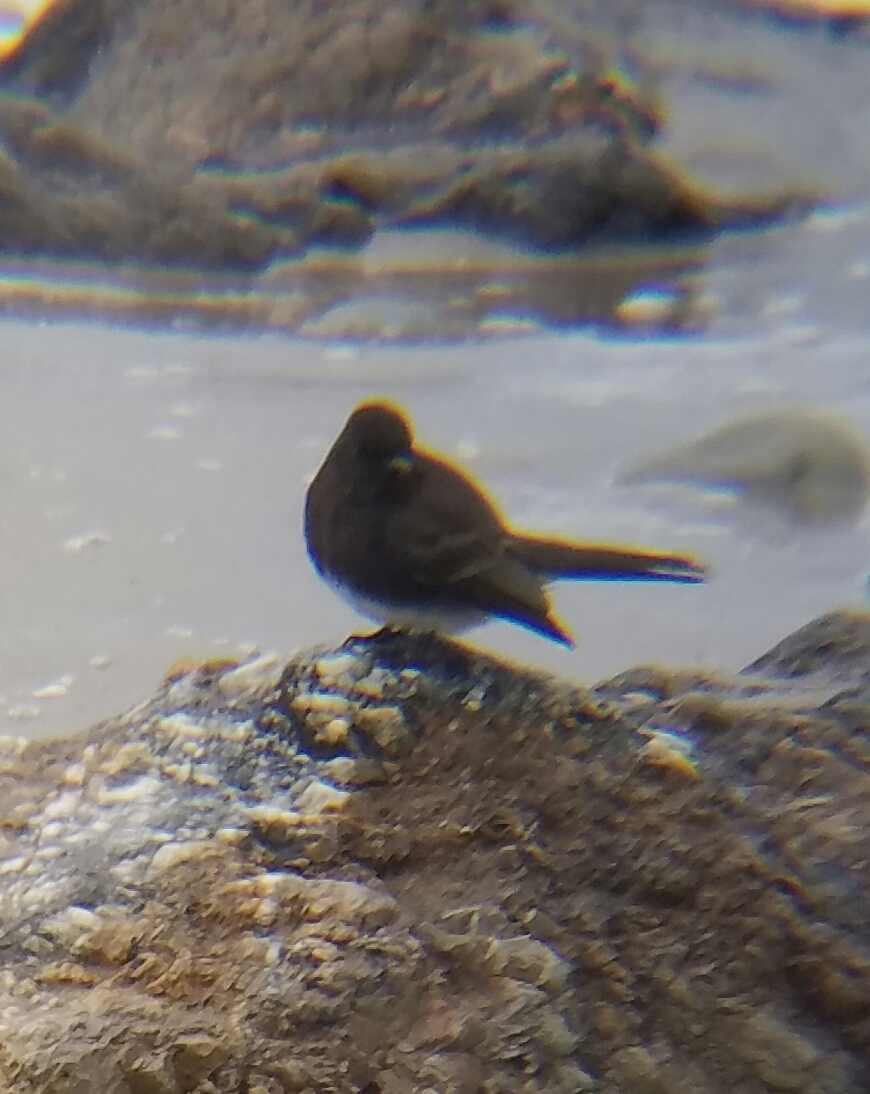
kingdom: Animalia
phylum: Chordata
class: Aves
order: Passeriformes
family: Tyrannidae
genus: Sayornis
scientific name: Sayornis nigricans
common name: Black phoebe
